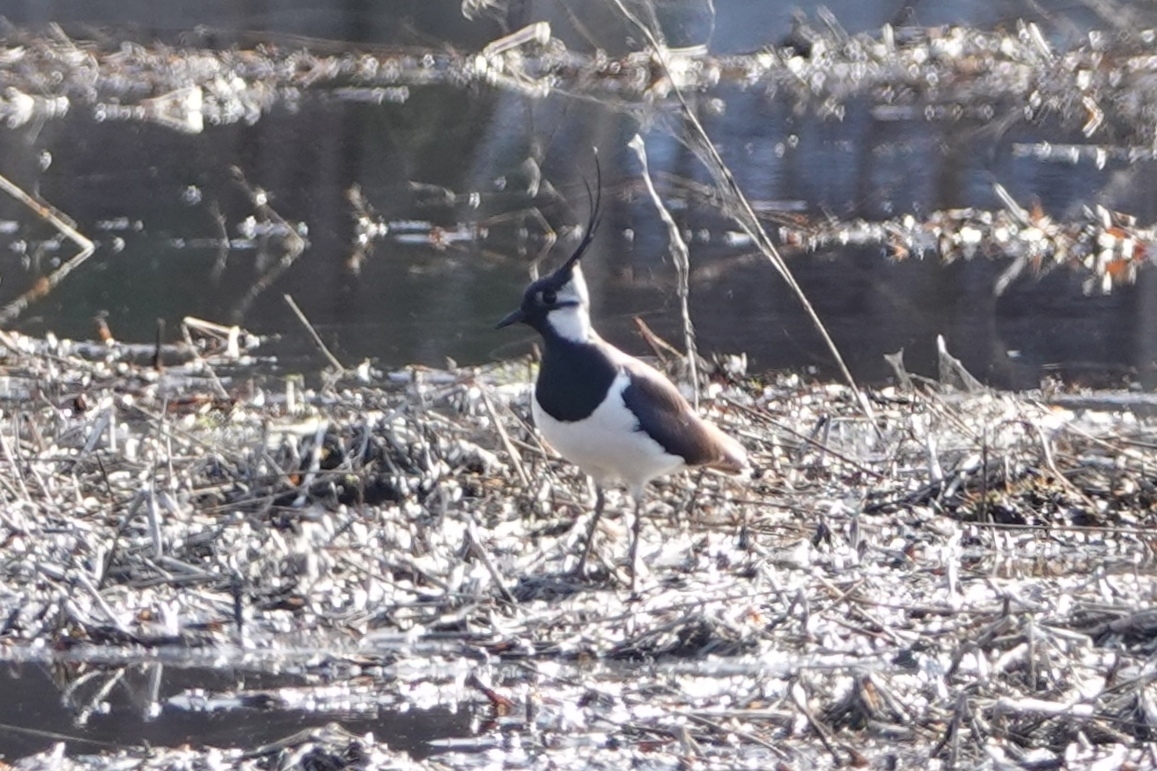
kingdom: Animalia
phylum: Chordata
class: Aves
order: Charadriiformes
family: Charadriidae
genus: Vanellus
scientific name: Vanellus vanellus
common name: Northern lapwing
